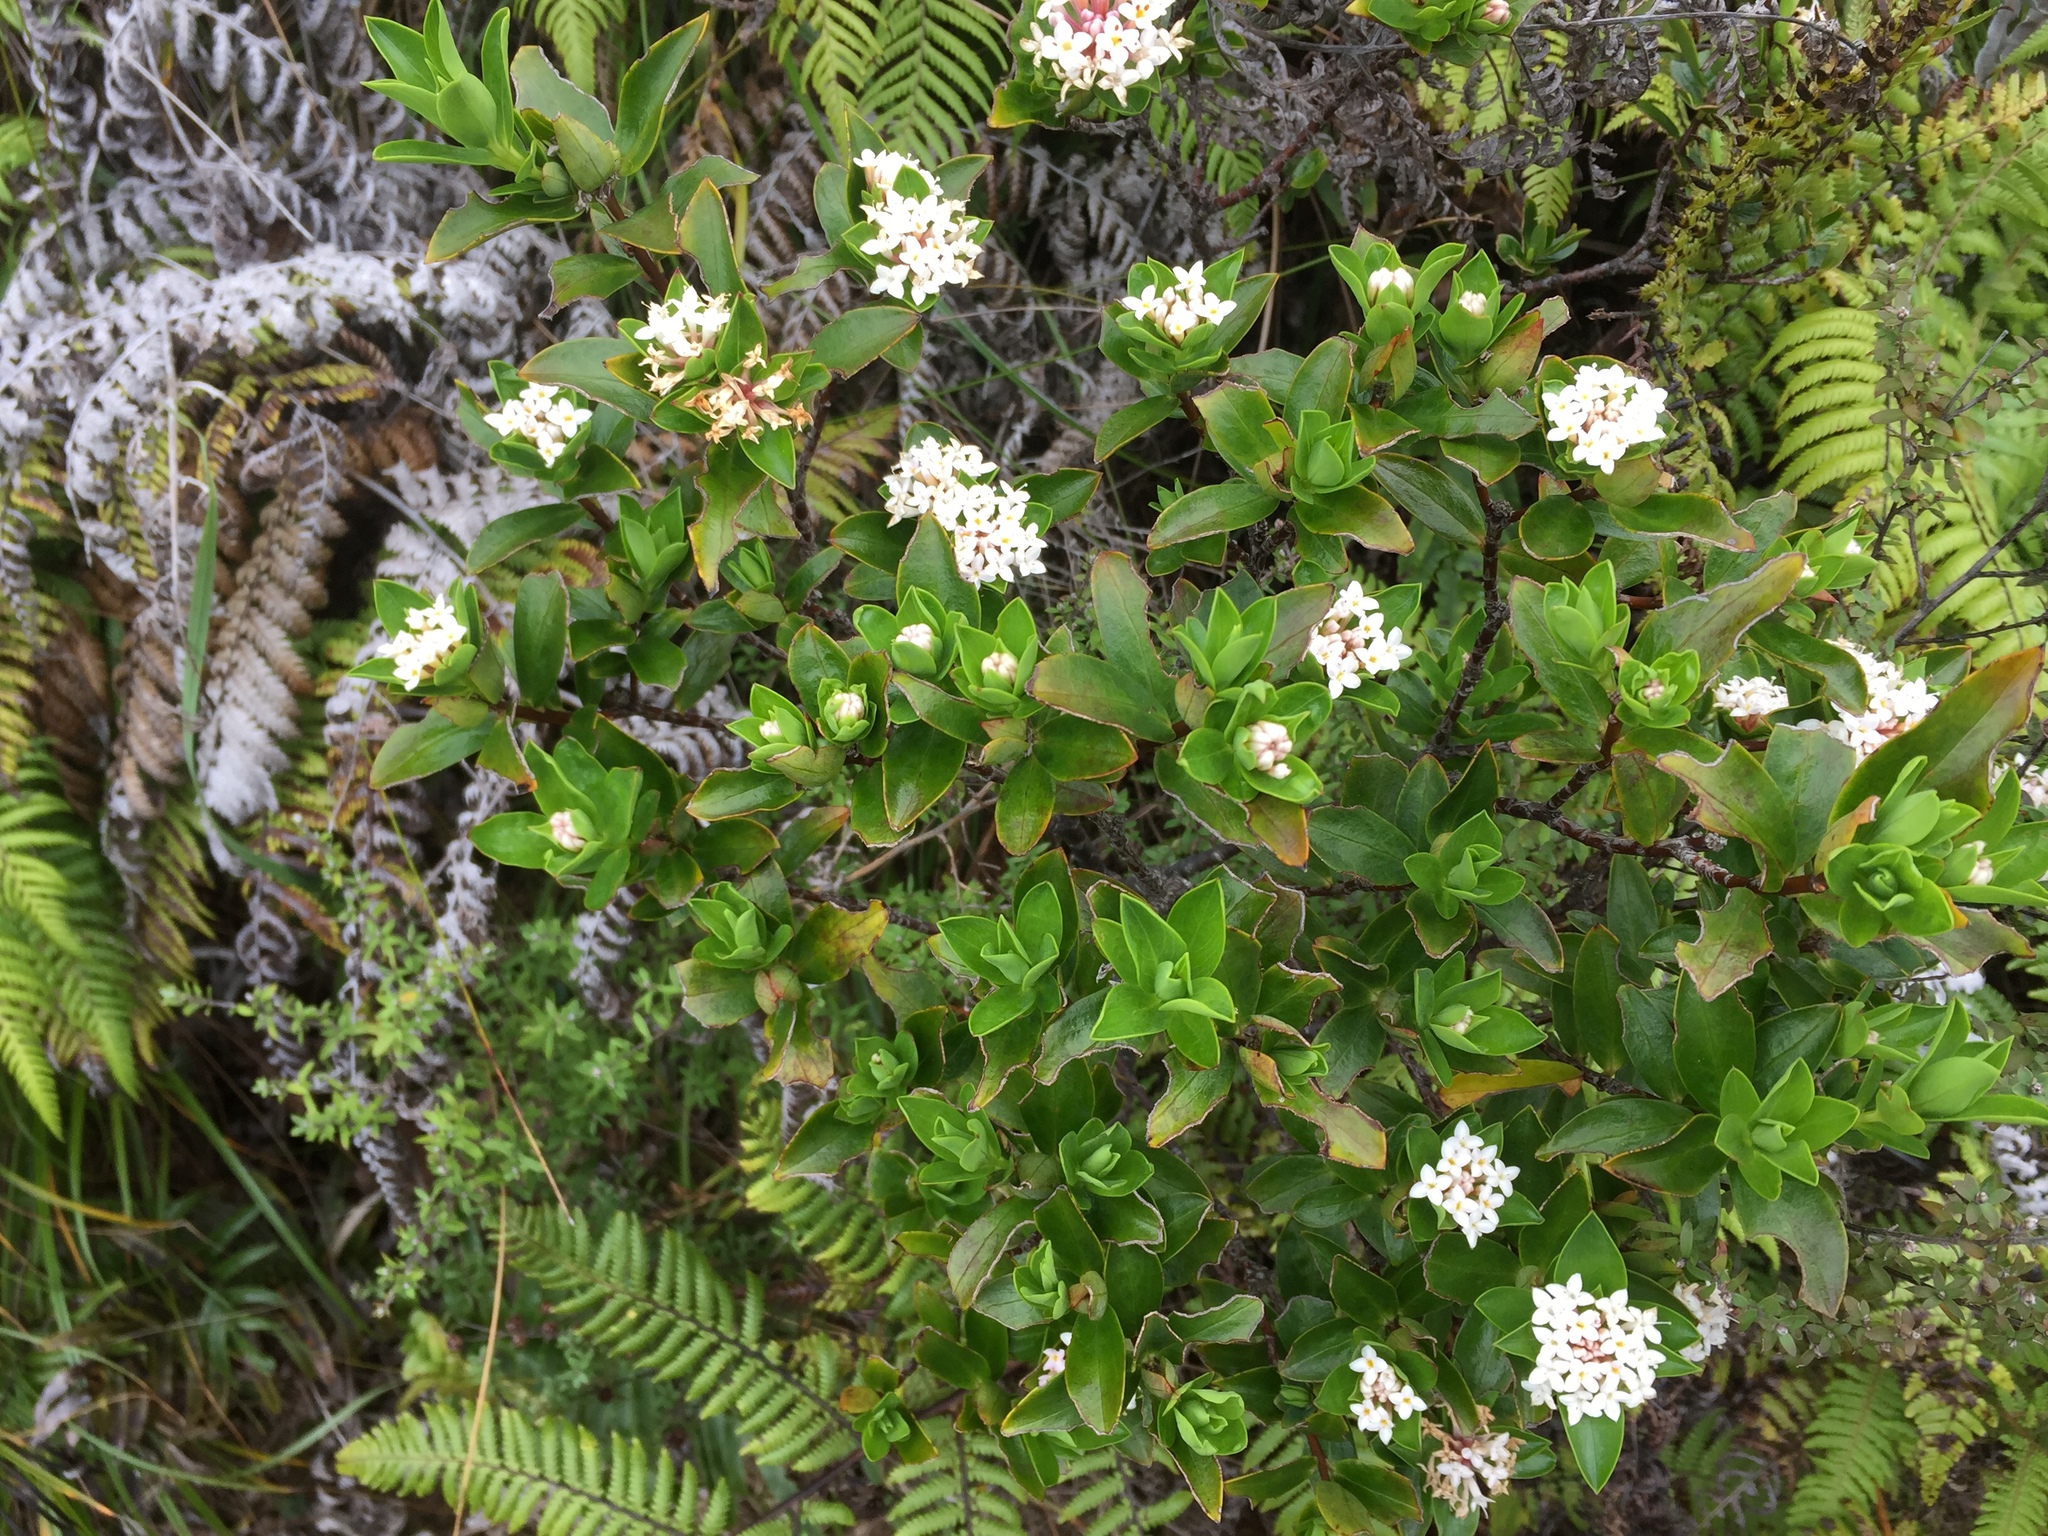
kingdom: Plantae
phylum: Tracheophyta
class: Magnoliopsida
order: Malvales
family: Thymelaeaceae
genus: Pimelea
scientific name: Pimelea longifolia
